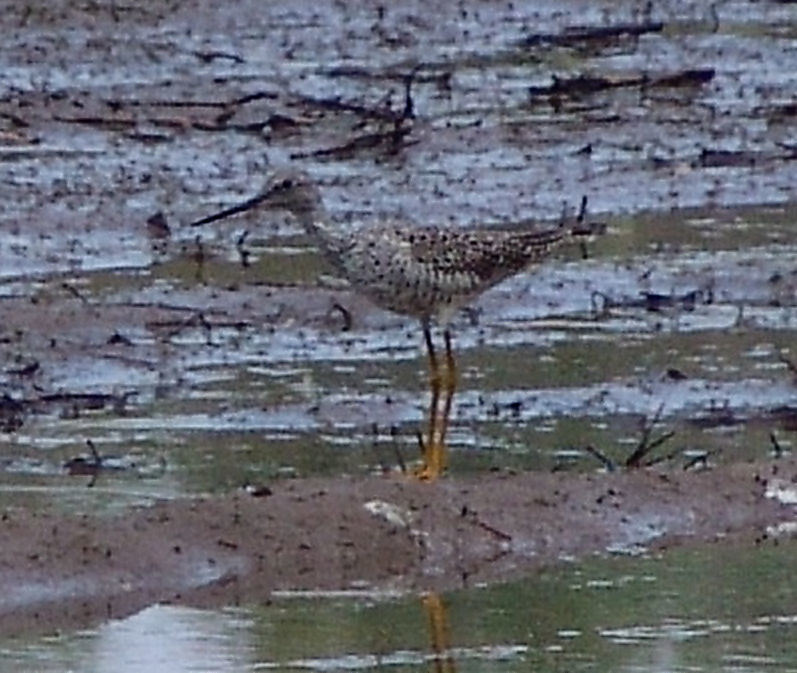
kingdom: Animalia
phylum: Chordata
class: Aves
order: Charadriiformes
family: Scolopacidae
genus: Tringa
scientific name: Tringa melanoleuca
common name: Greater yellowlegs
